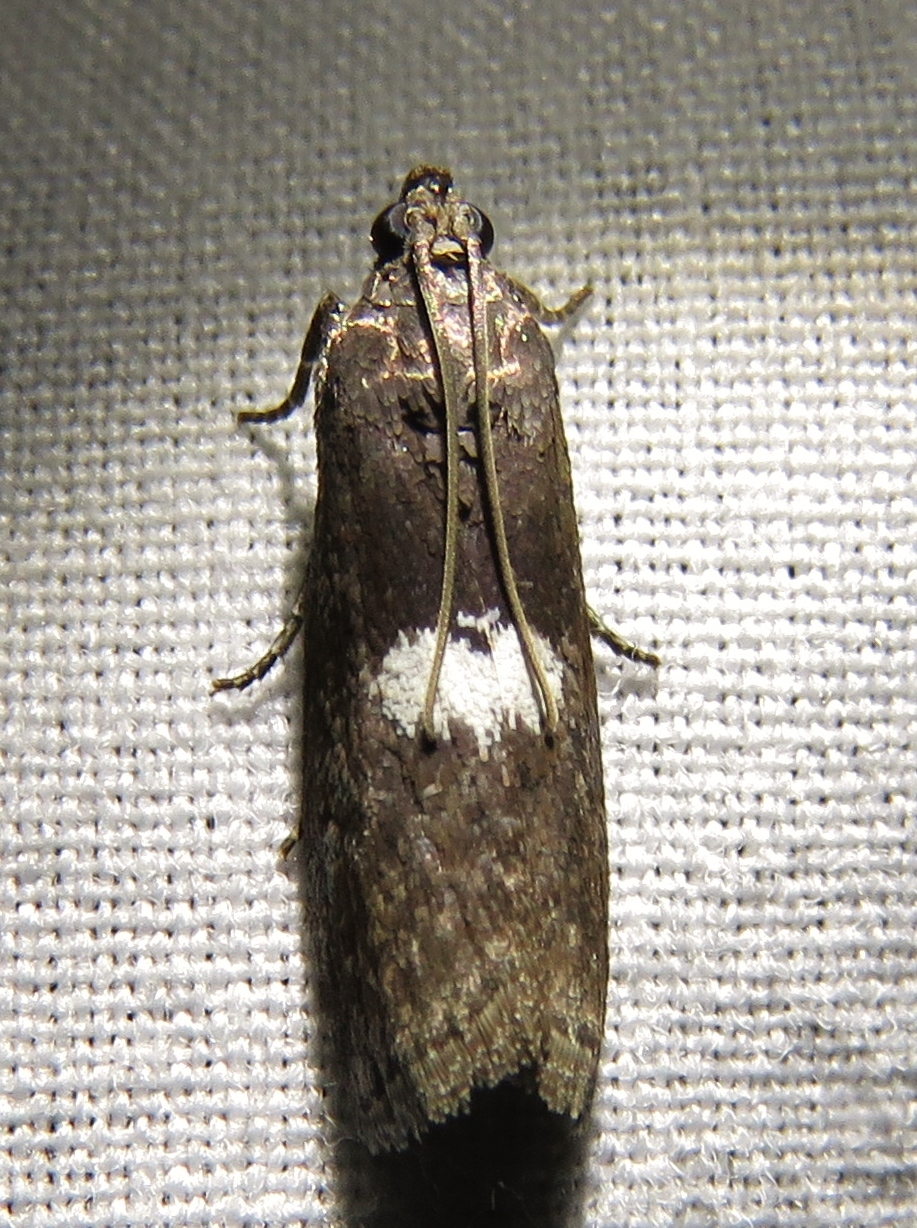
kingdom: Animalia
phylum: Arthropoda
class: Insecta
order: Lepidoptera
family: Pyralidae
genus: Salebriaria
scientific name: Salebriaria engeli
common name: Engel's salebriaria moth
